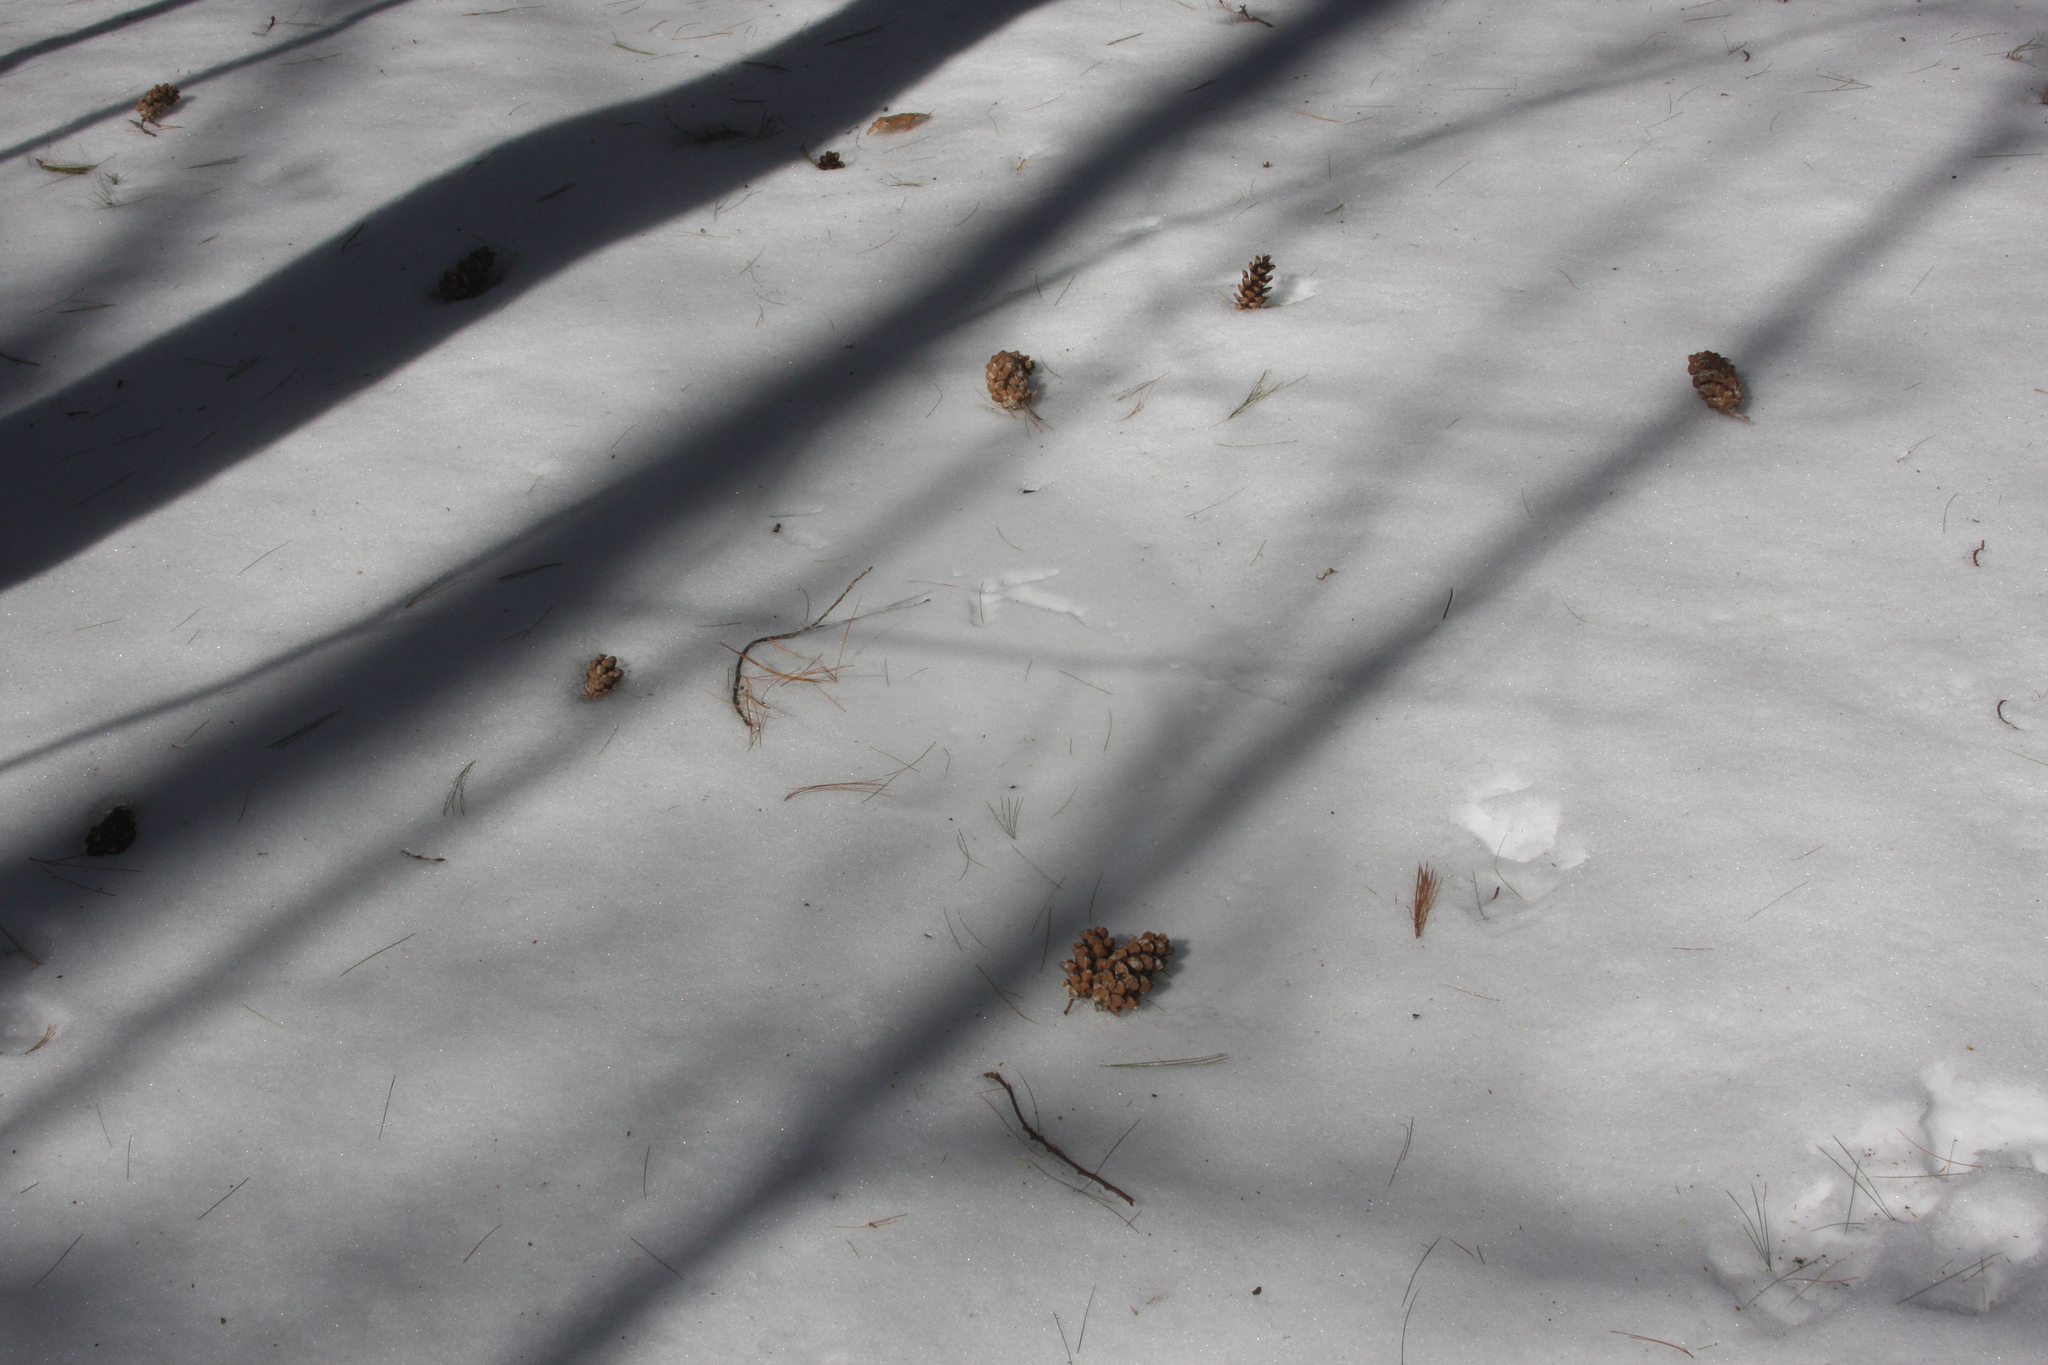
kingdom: Animalia
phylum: Chordata
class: Aves
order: Galliformes
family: Phasianidae
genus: Bonasa
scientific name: Bonasa umbellus
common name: Ruffed grouse
